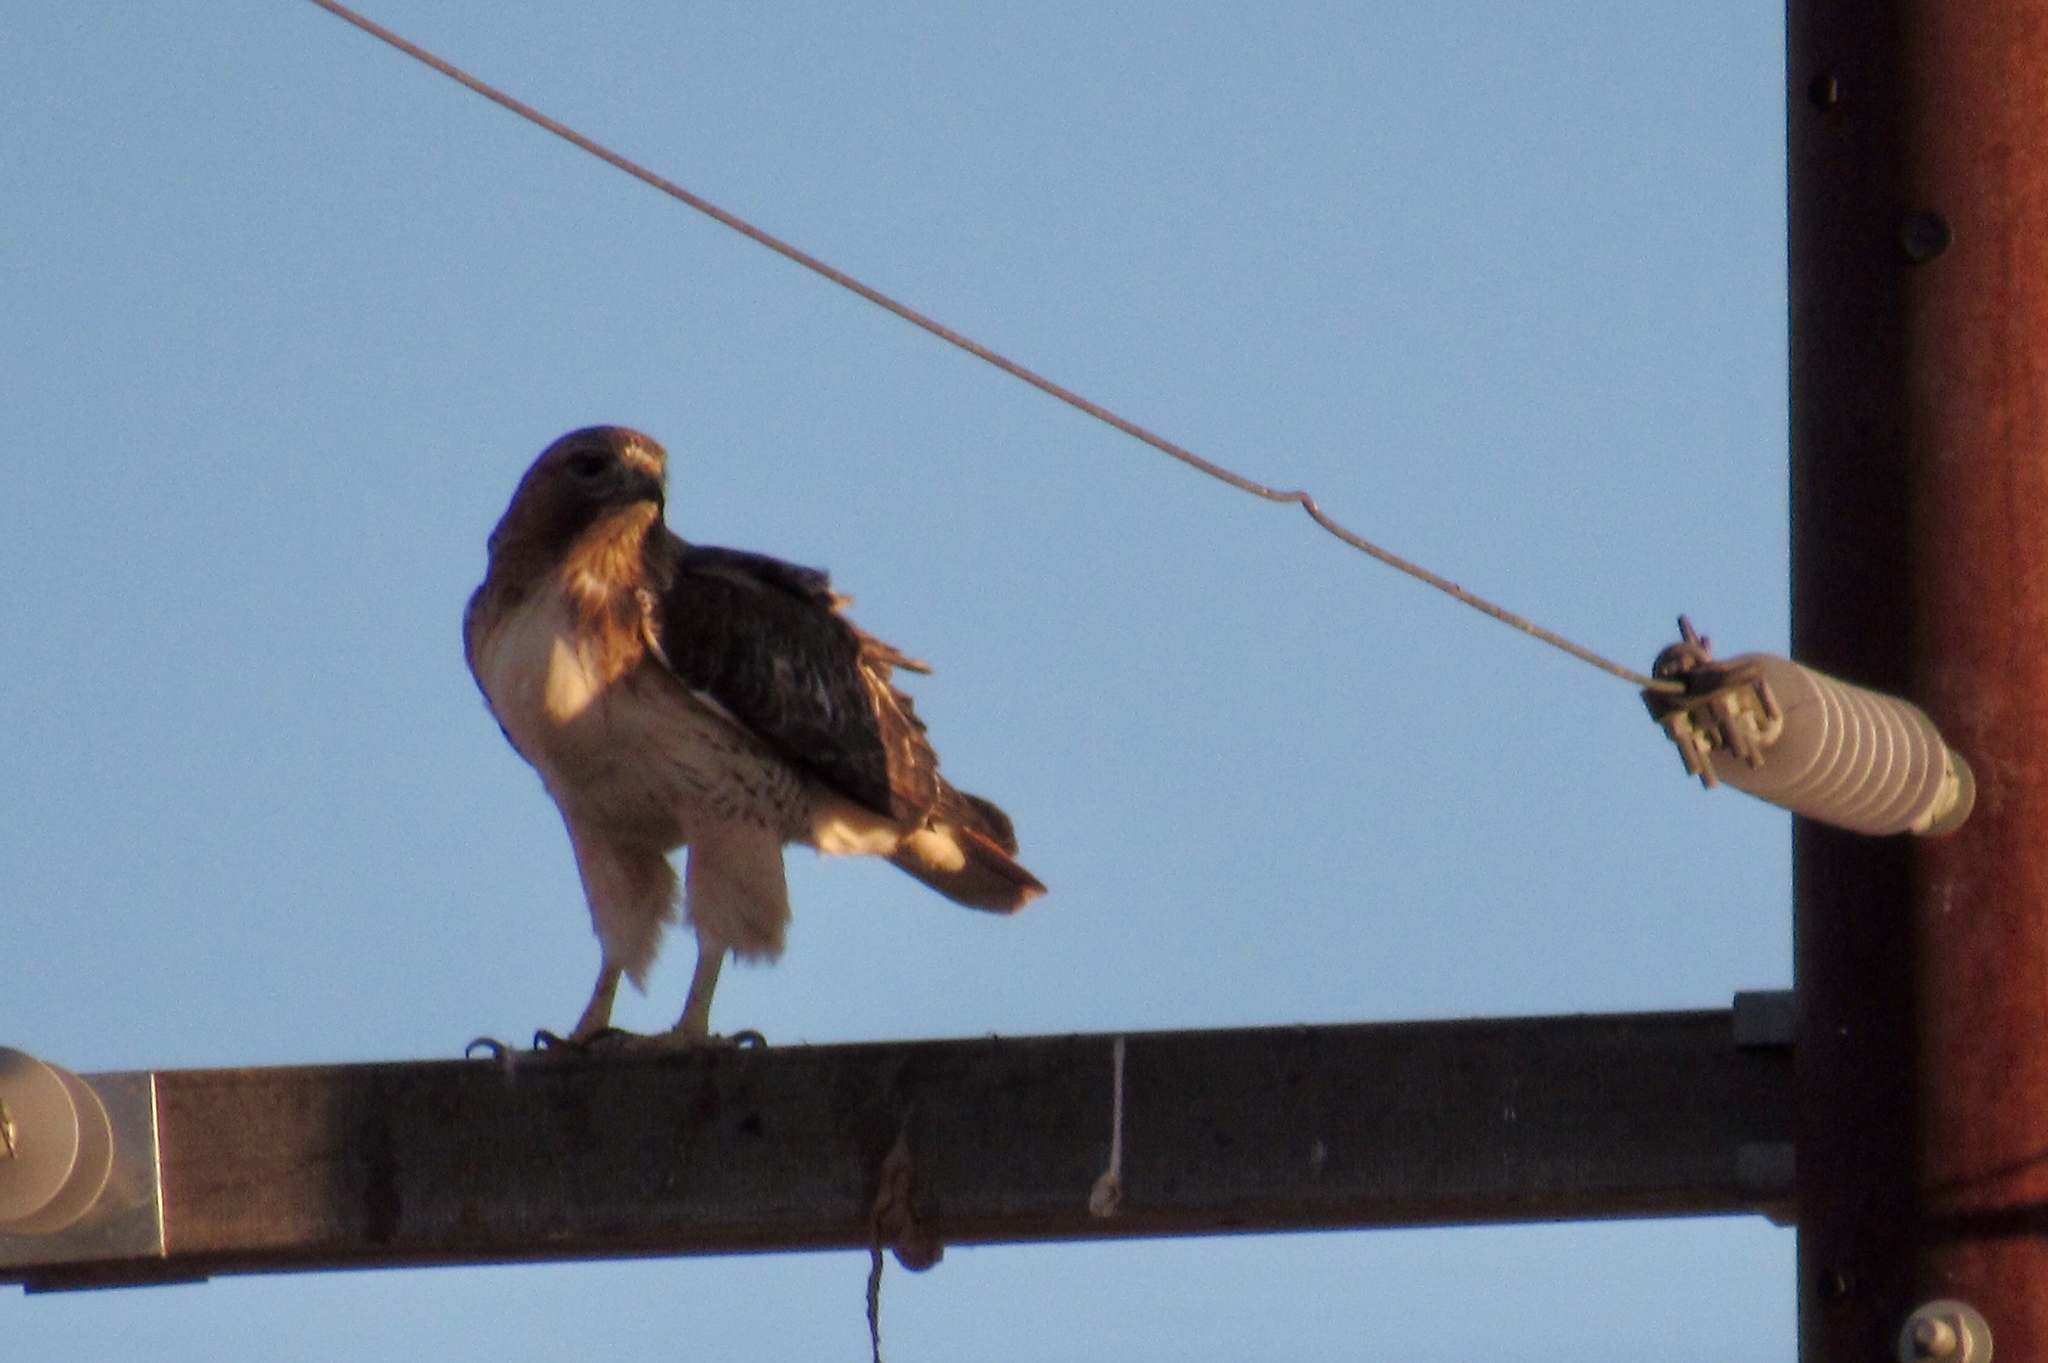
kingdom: Animalia
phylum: Chordata
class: Aves
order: Accipitriformes
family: Accipitridae
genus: Buteo
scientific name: Buteo jamaicensis
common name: Red-tailed hawk
